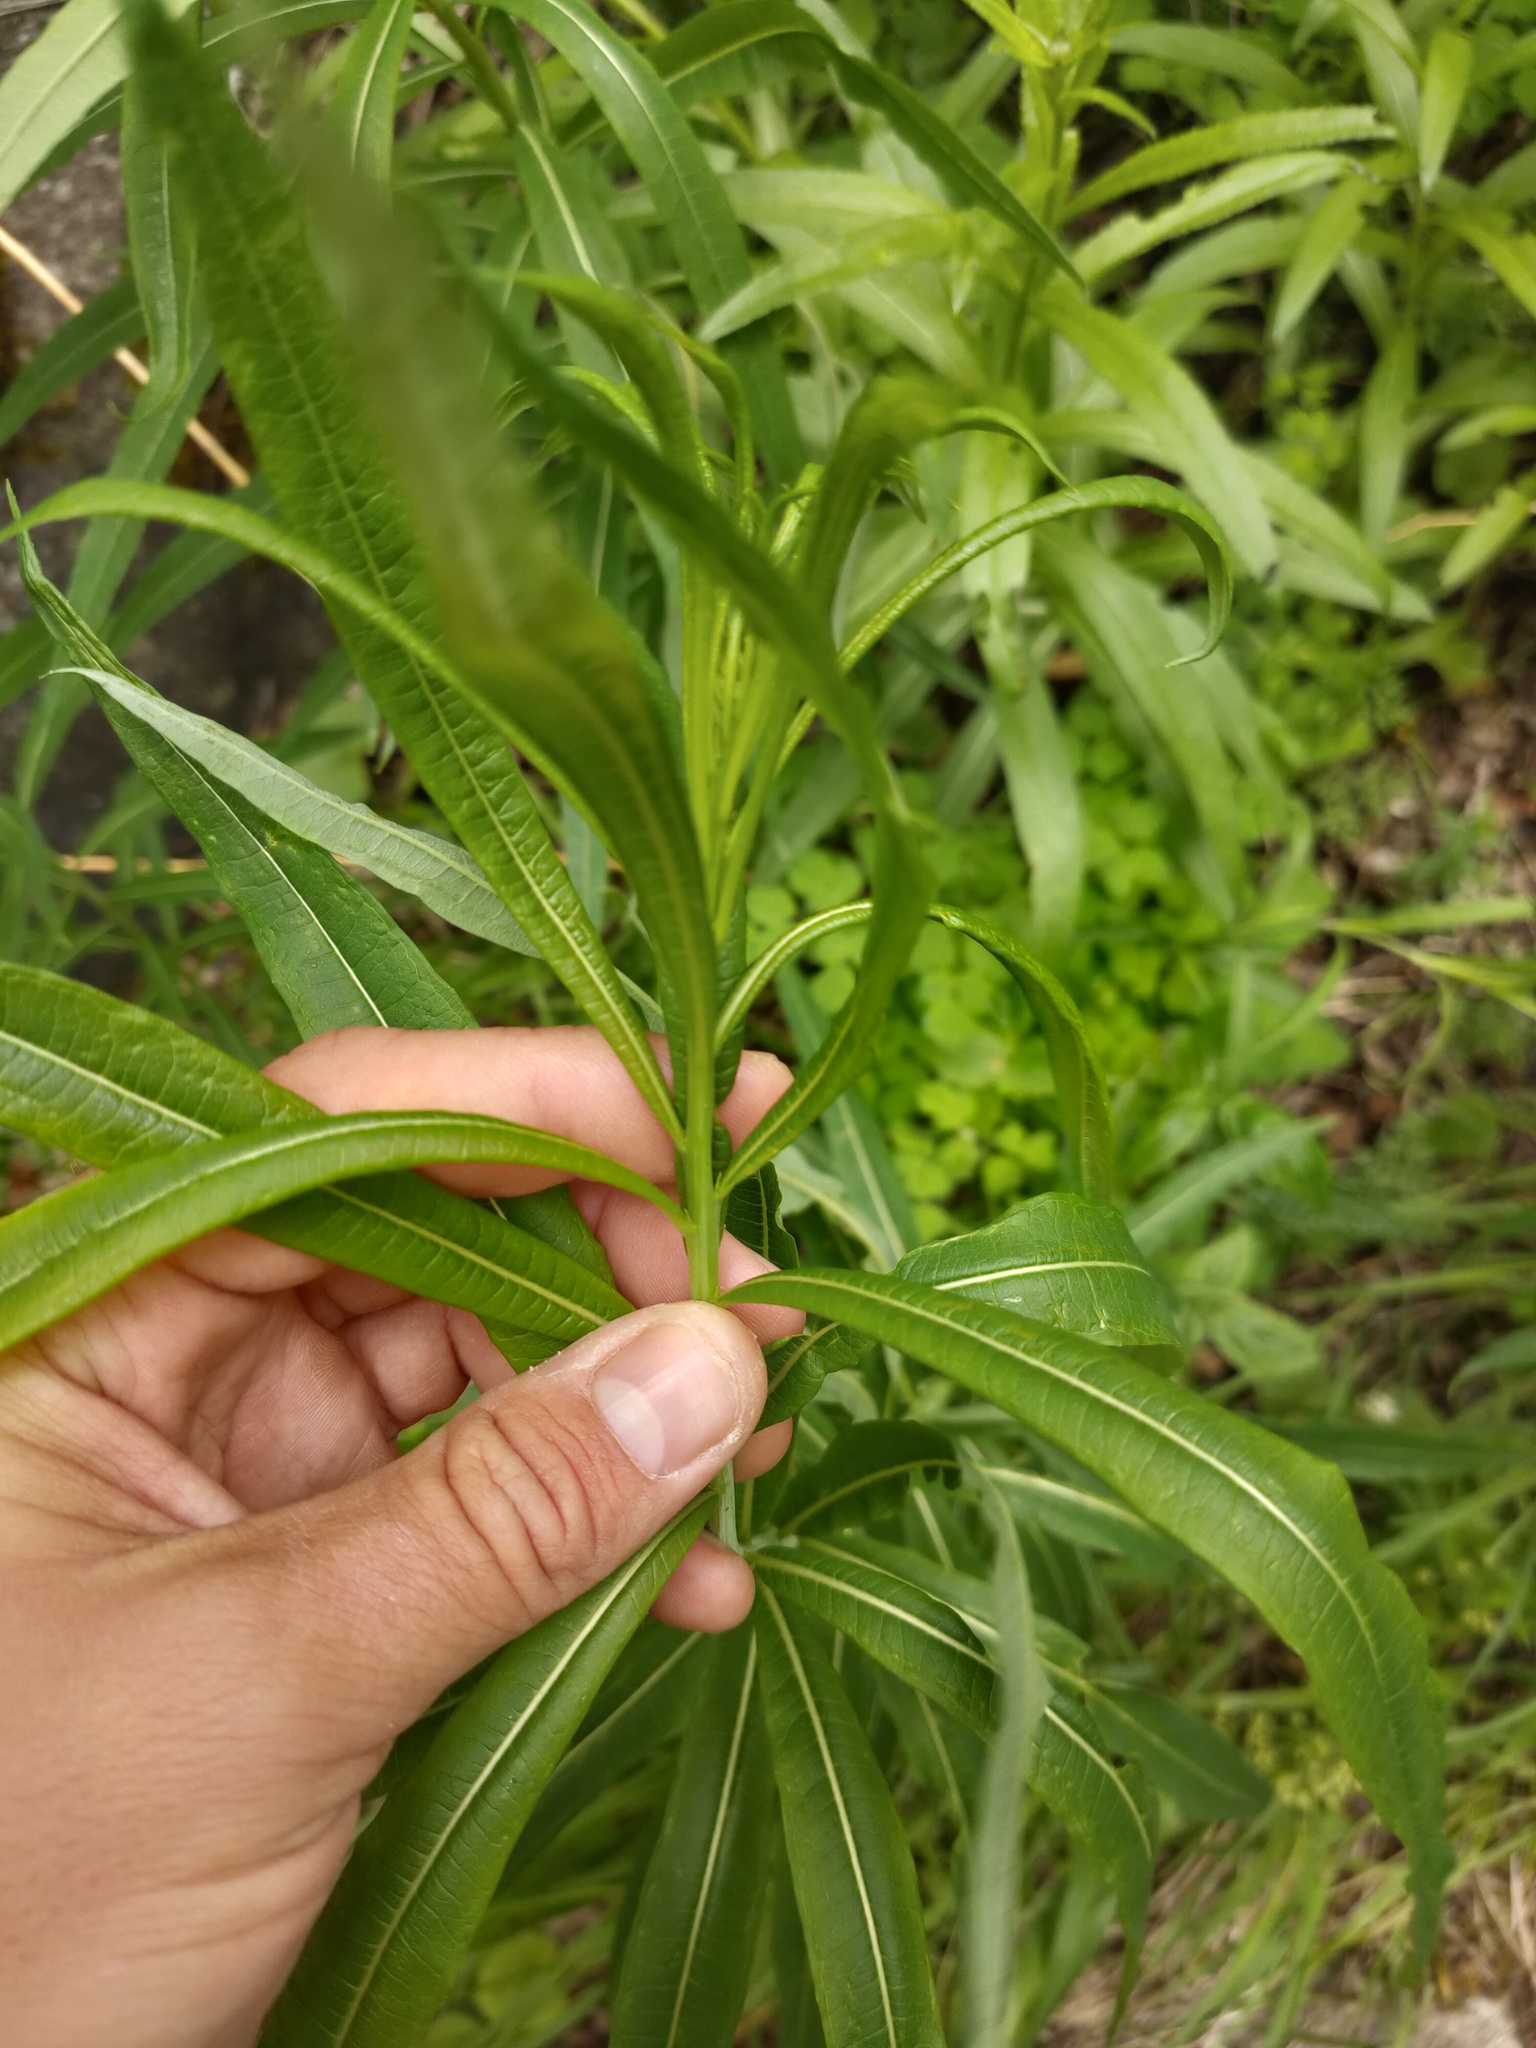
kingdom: Plantae
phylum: Tracheophyta
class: Magnoliopsida
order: Myrtales
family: Onagraceae
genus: Chamaenerion
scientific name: Chamaenerion angustifolium
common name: Fireweed
